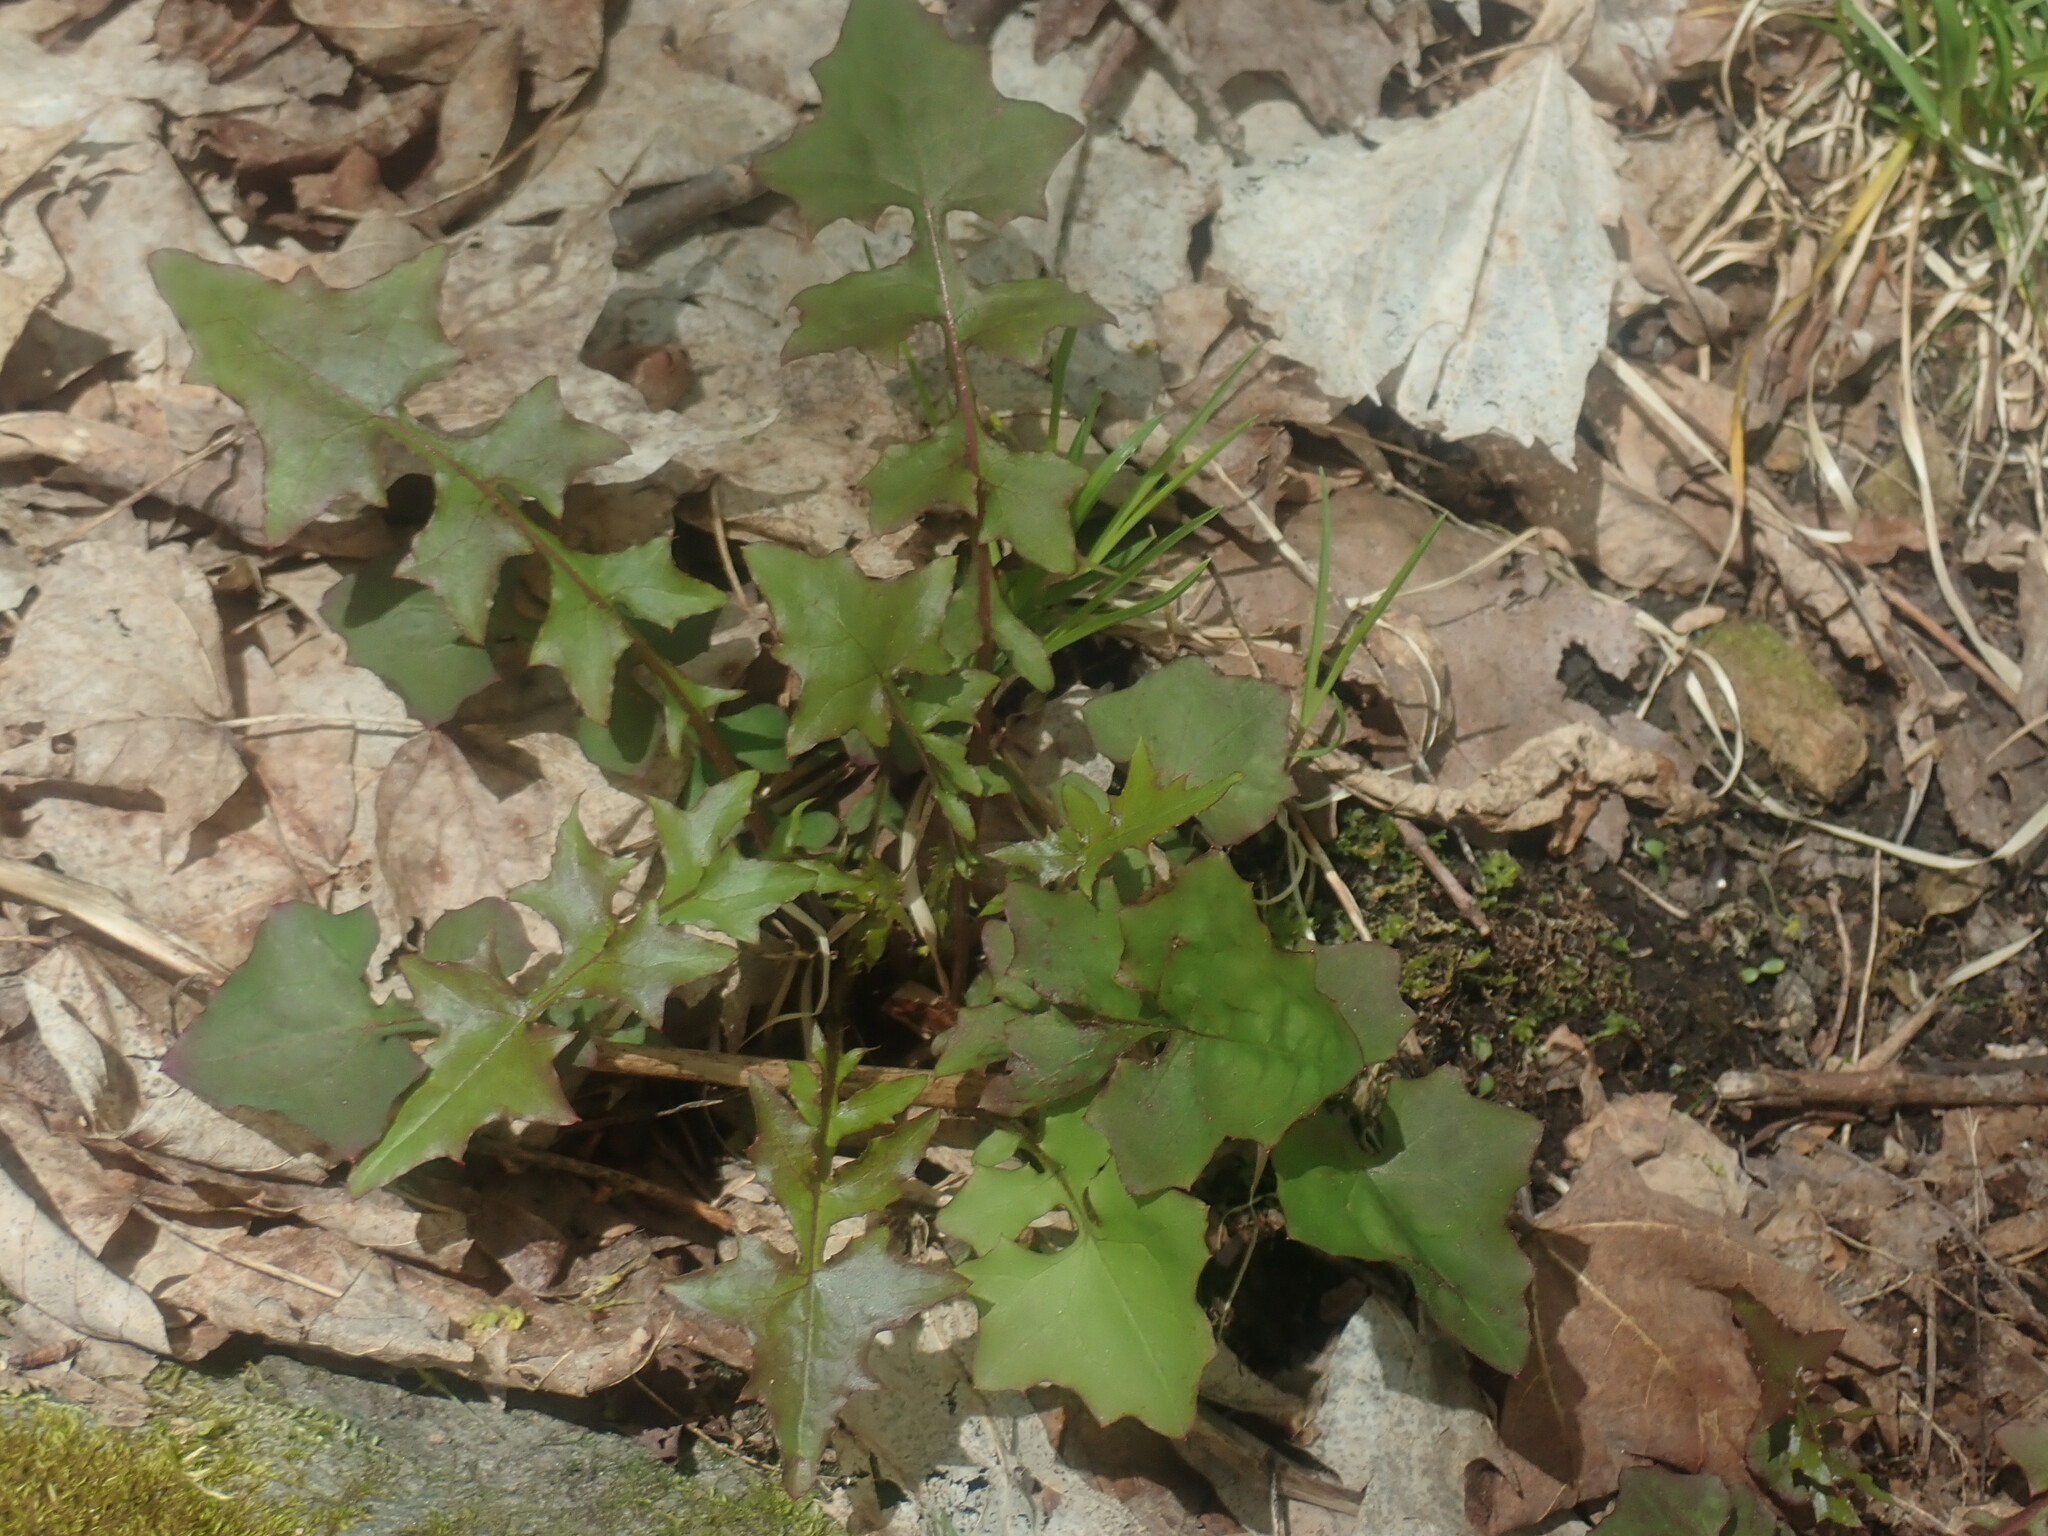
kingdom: Plantae
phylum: Tracheophyta
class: Magnoliopsida
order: Asterales
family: Asteraceae
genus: Mycelis
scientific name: Mycelis muralis
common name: Wall lettuce
